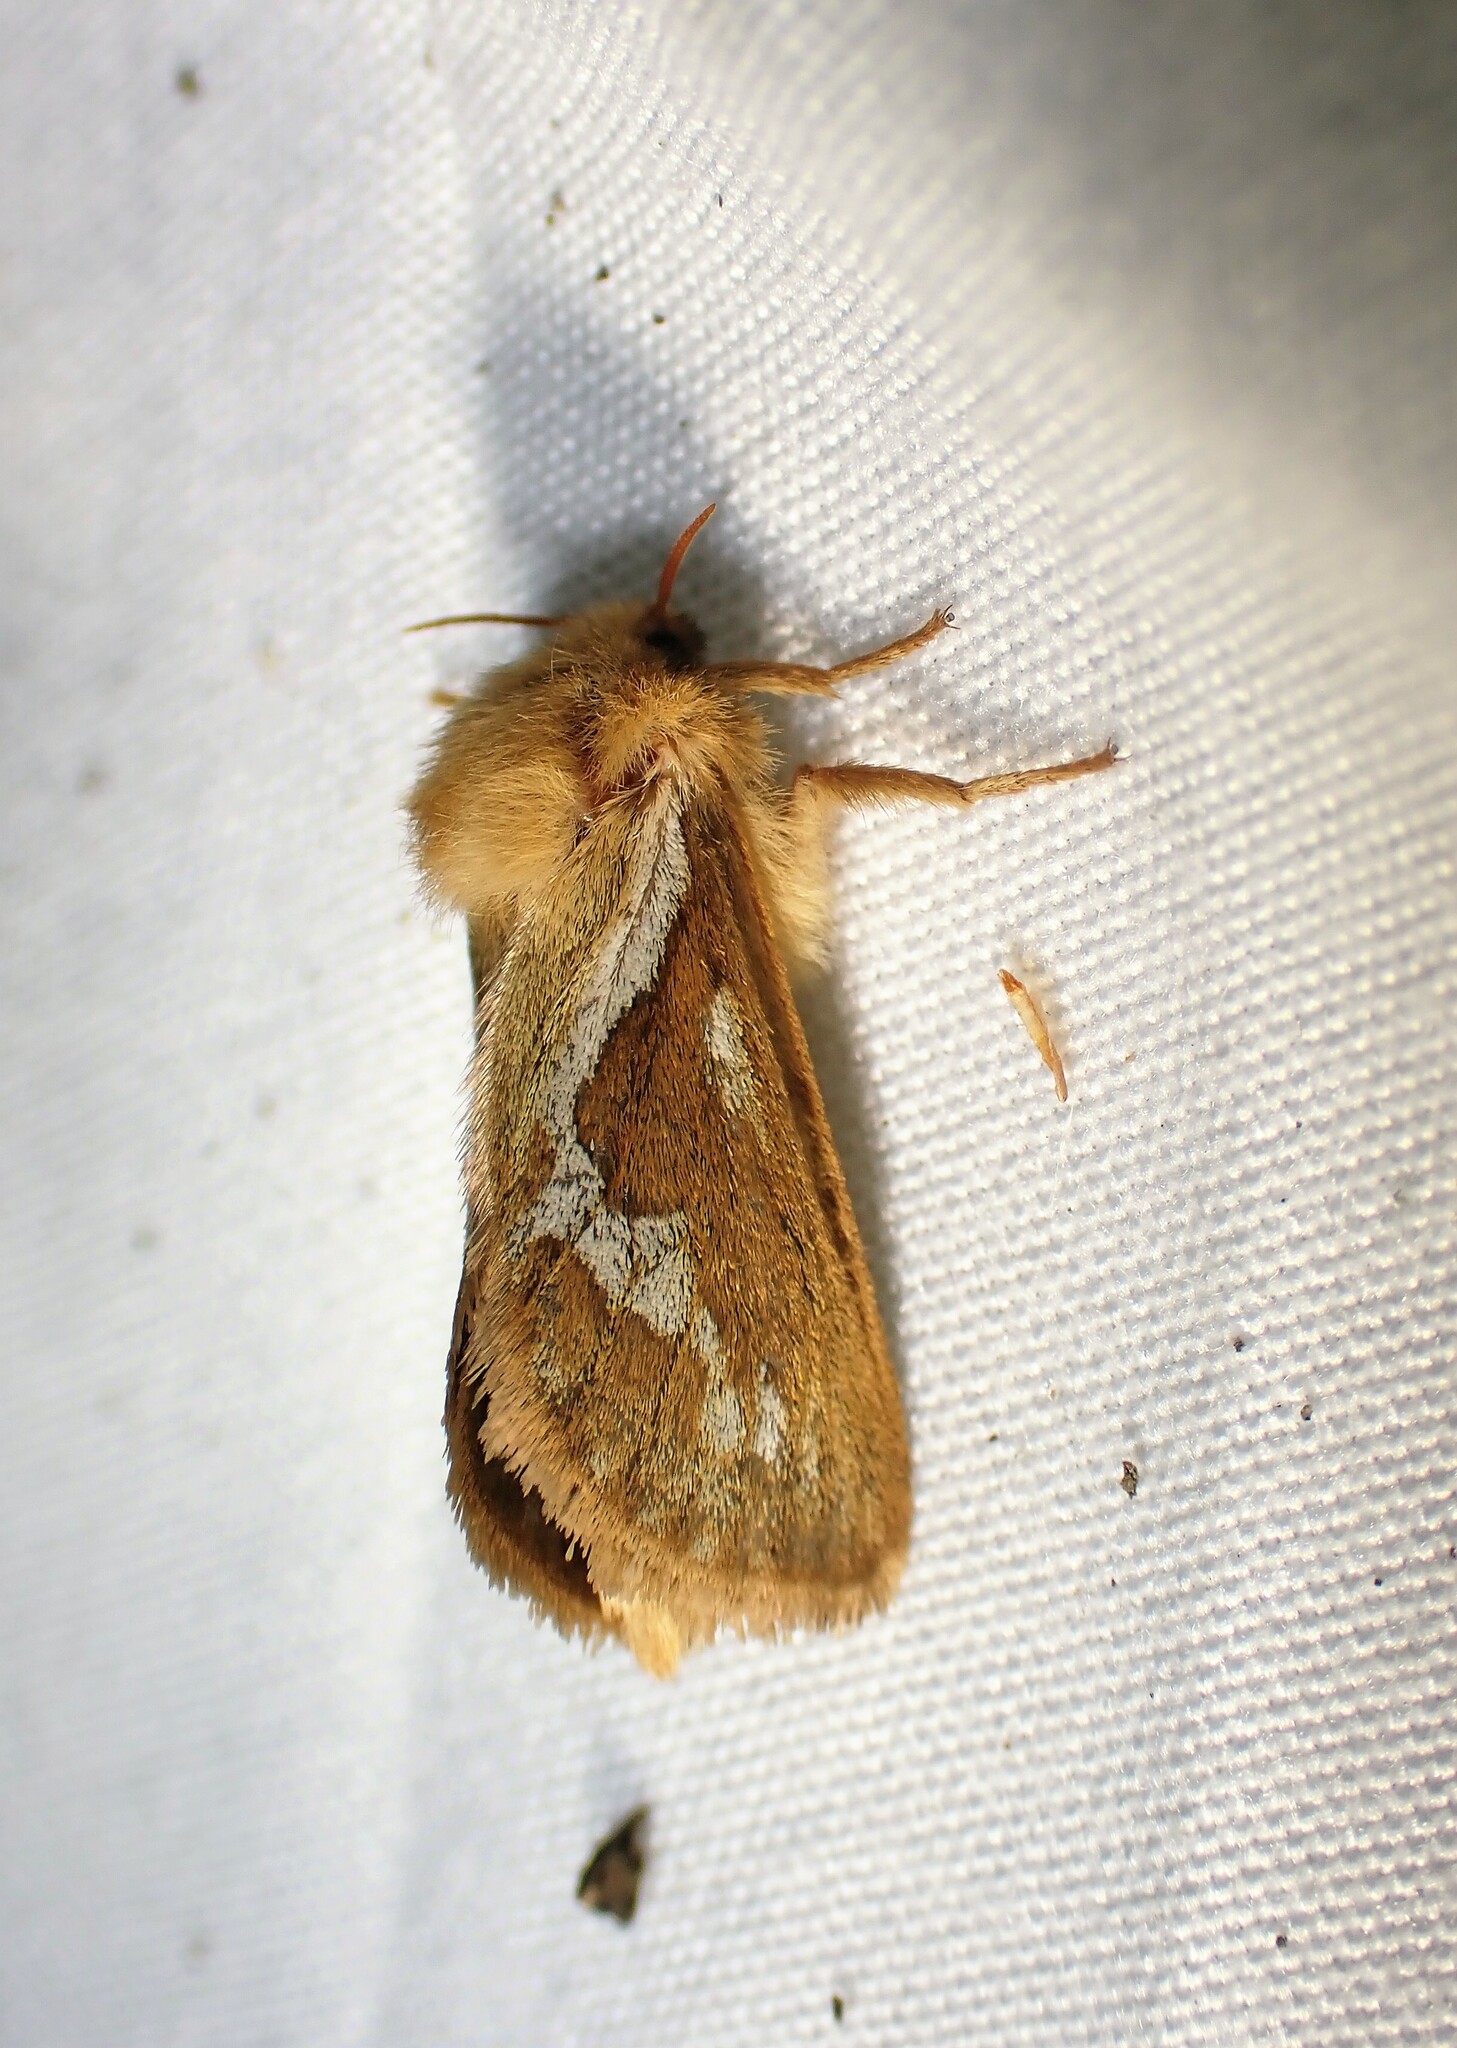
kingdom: Animalia
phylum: Arthropoda
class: Insecta
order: Lepidoptera
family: Hepialidae
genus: Korscheltellus
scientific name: Korscheltellus lupulina
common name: Common swift
